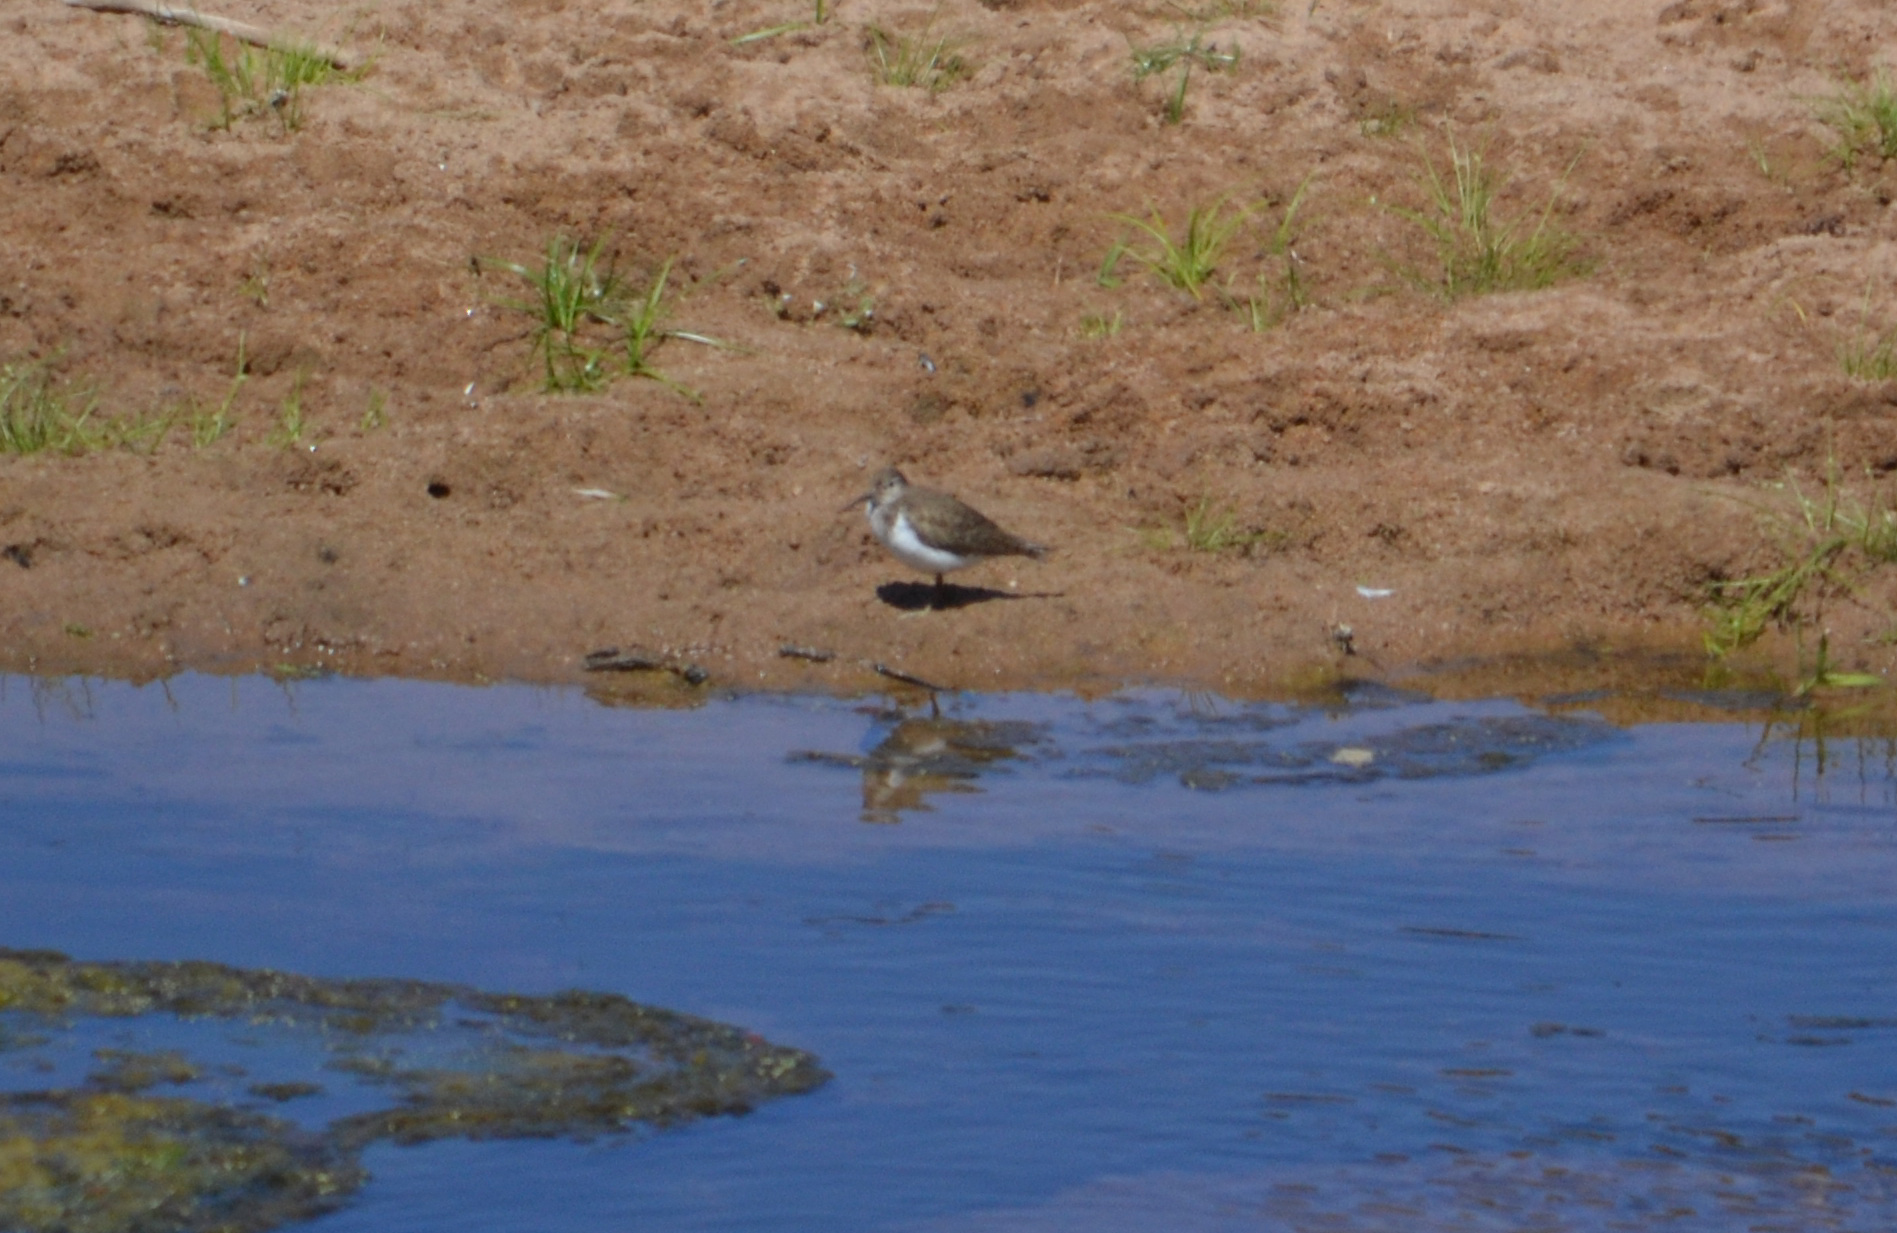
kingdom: Animalia
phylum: Chordata
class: Aves
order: Charadriiformes
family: Scolopacidae
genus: Actitis
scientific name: Actitis hypoleucos
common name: Common sandpiper
